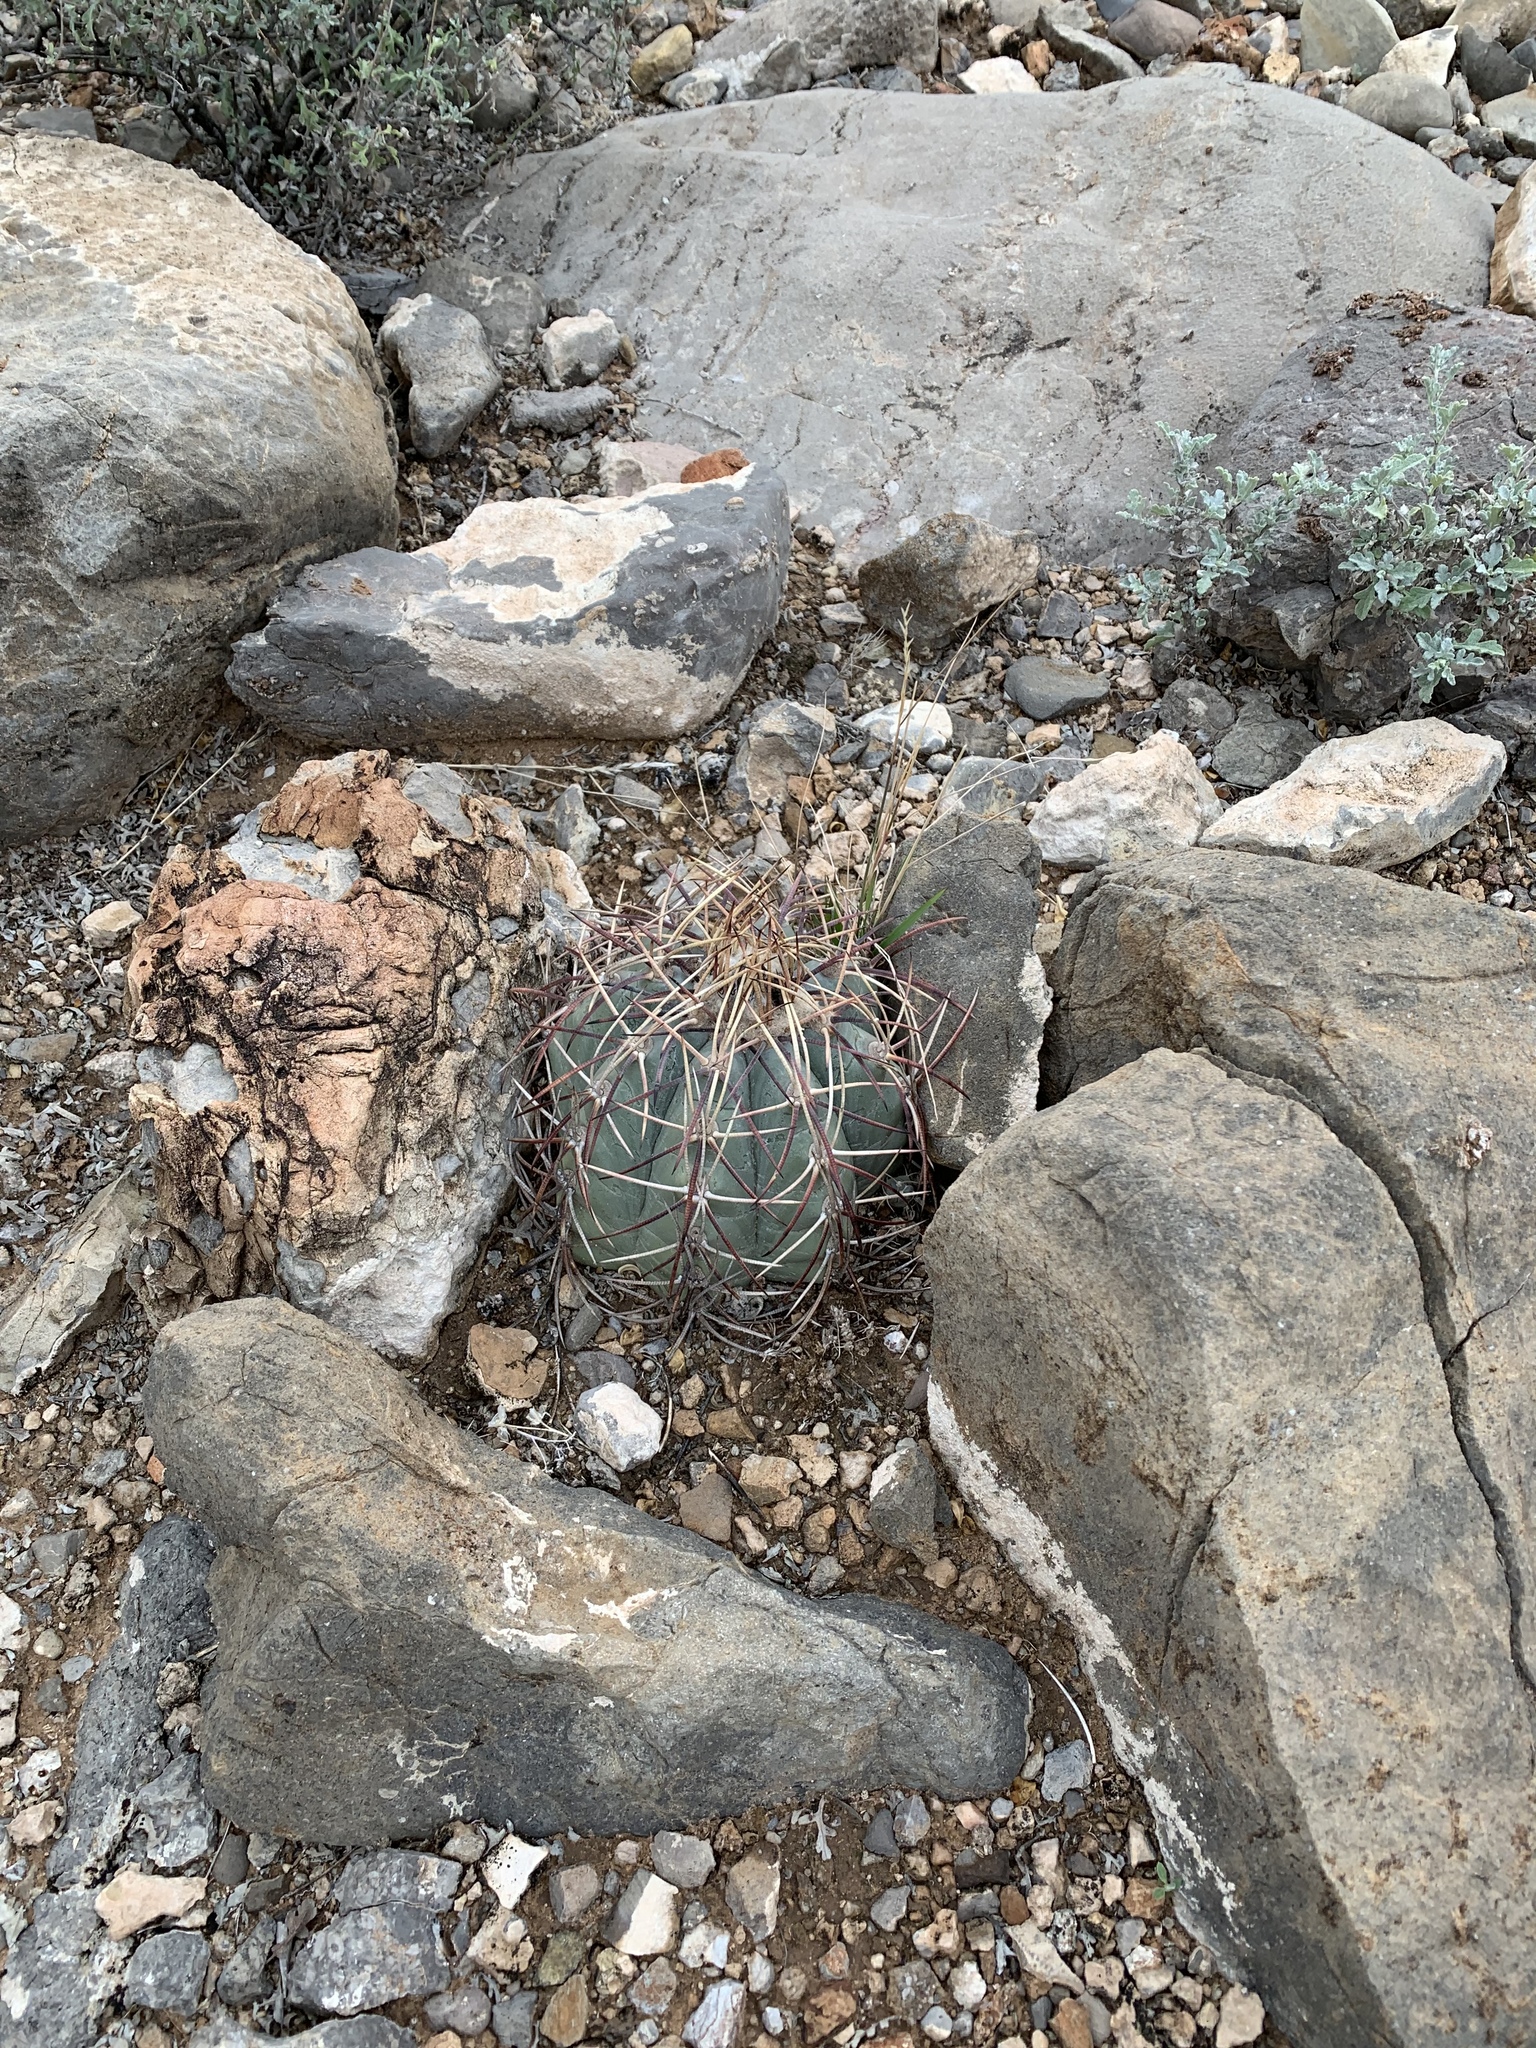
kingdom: Plantae
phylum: Tracheophyta
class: Magnoliopsida
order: Caryophyllales
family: Cactaceae
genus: Echinocactus
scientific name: Echinocactus horizonthalonius
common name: Devilshead
